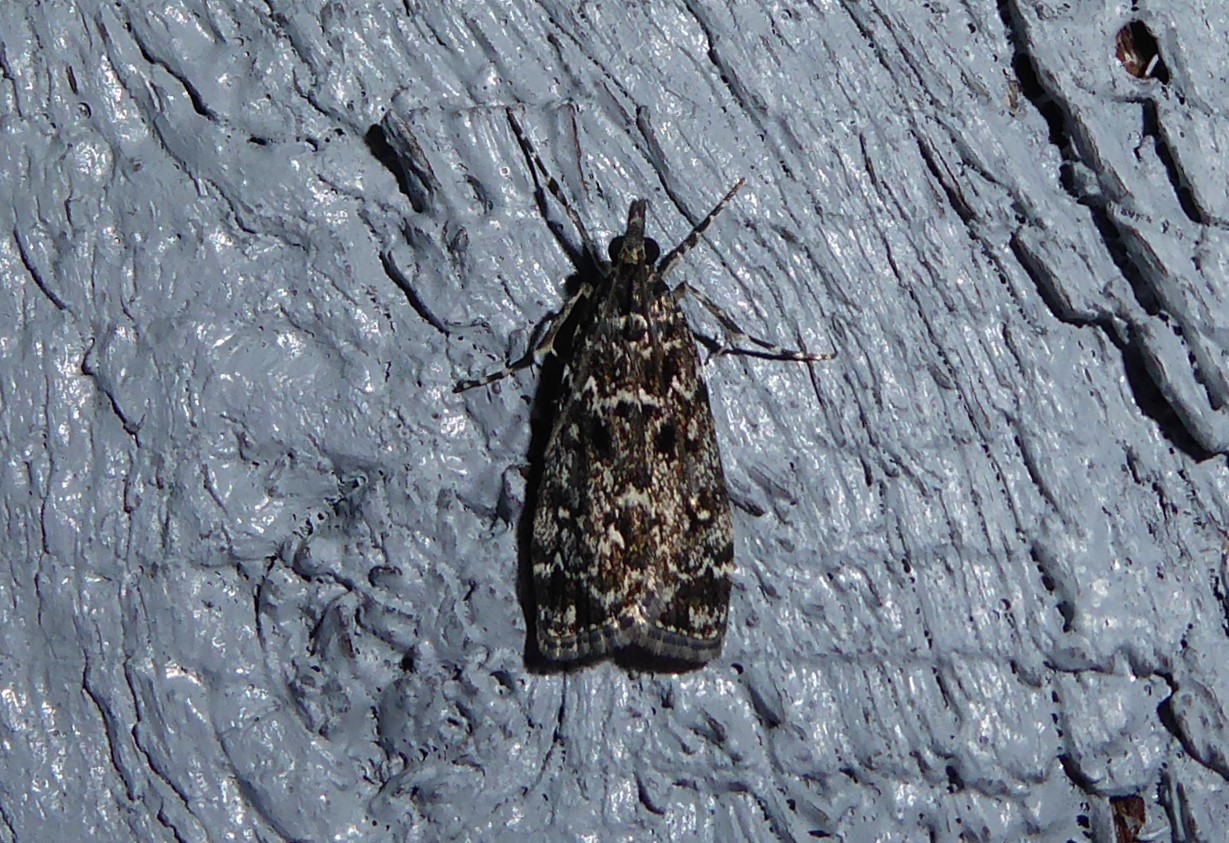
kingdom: Animalia
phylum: Arthropoda
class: Insecta
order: Lepidoptera
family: Crambidae
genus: Eudonia
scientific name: Eudonia philerga
